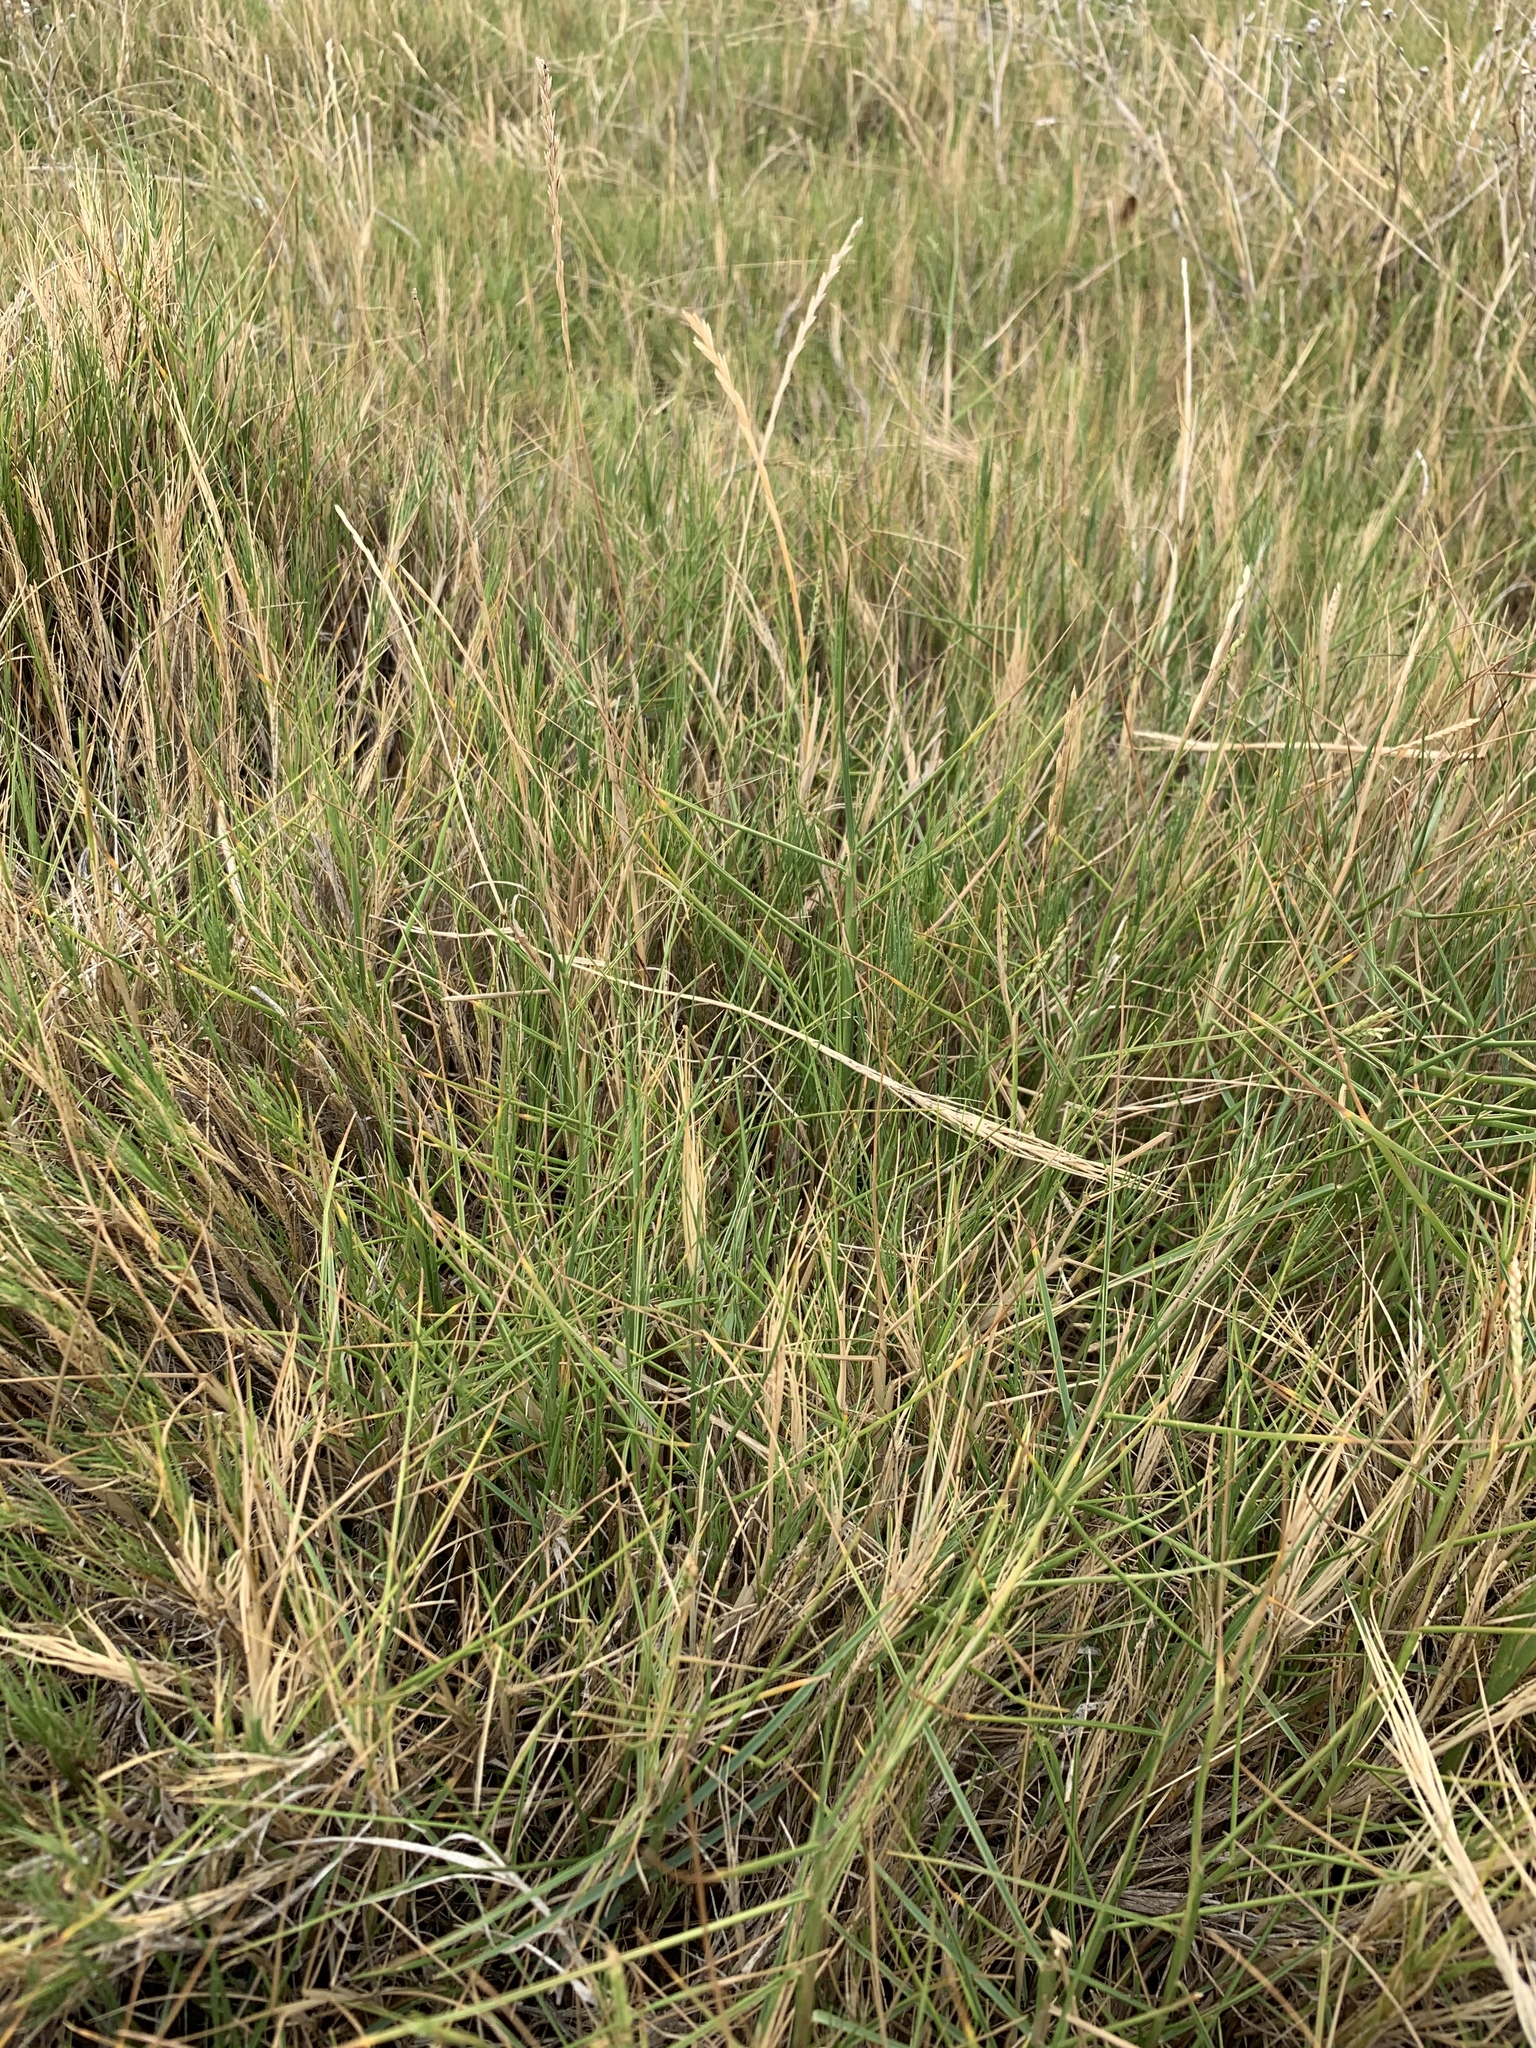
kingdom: Plantae
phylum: Tracheophyta
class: Liliopsida
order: Poales
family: Poaceae
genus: Sporobolus
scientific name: Sporobolus virginicus
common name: Beach dropseed
